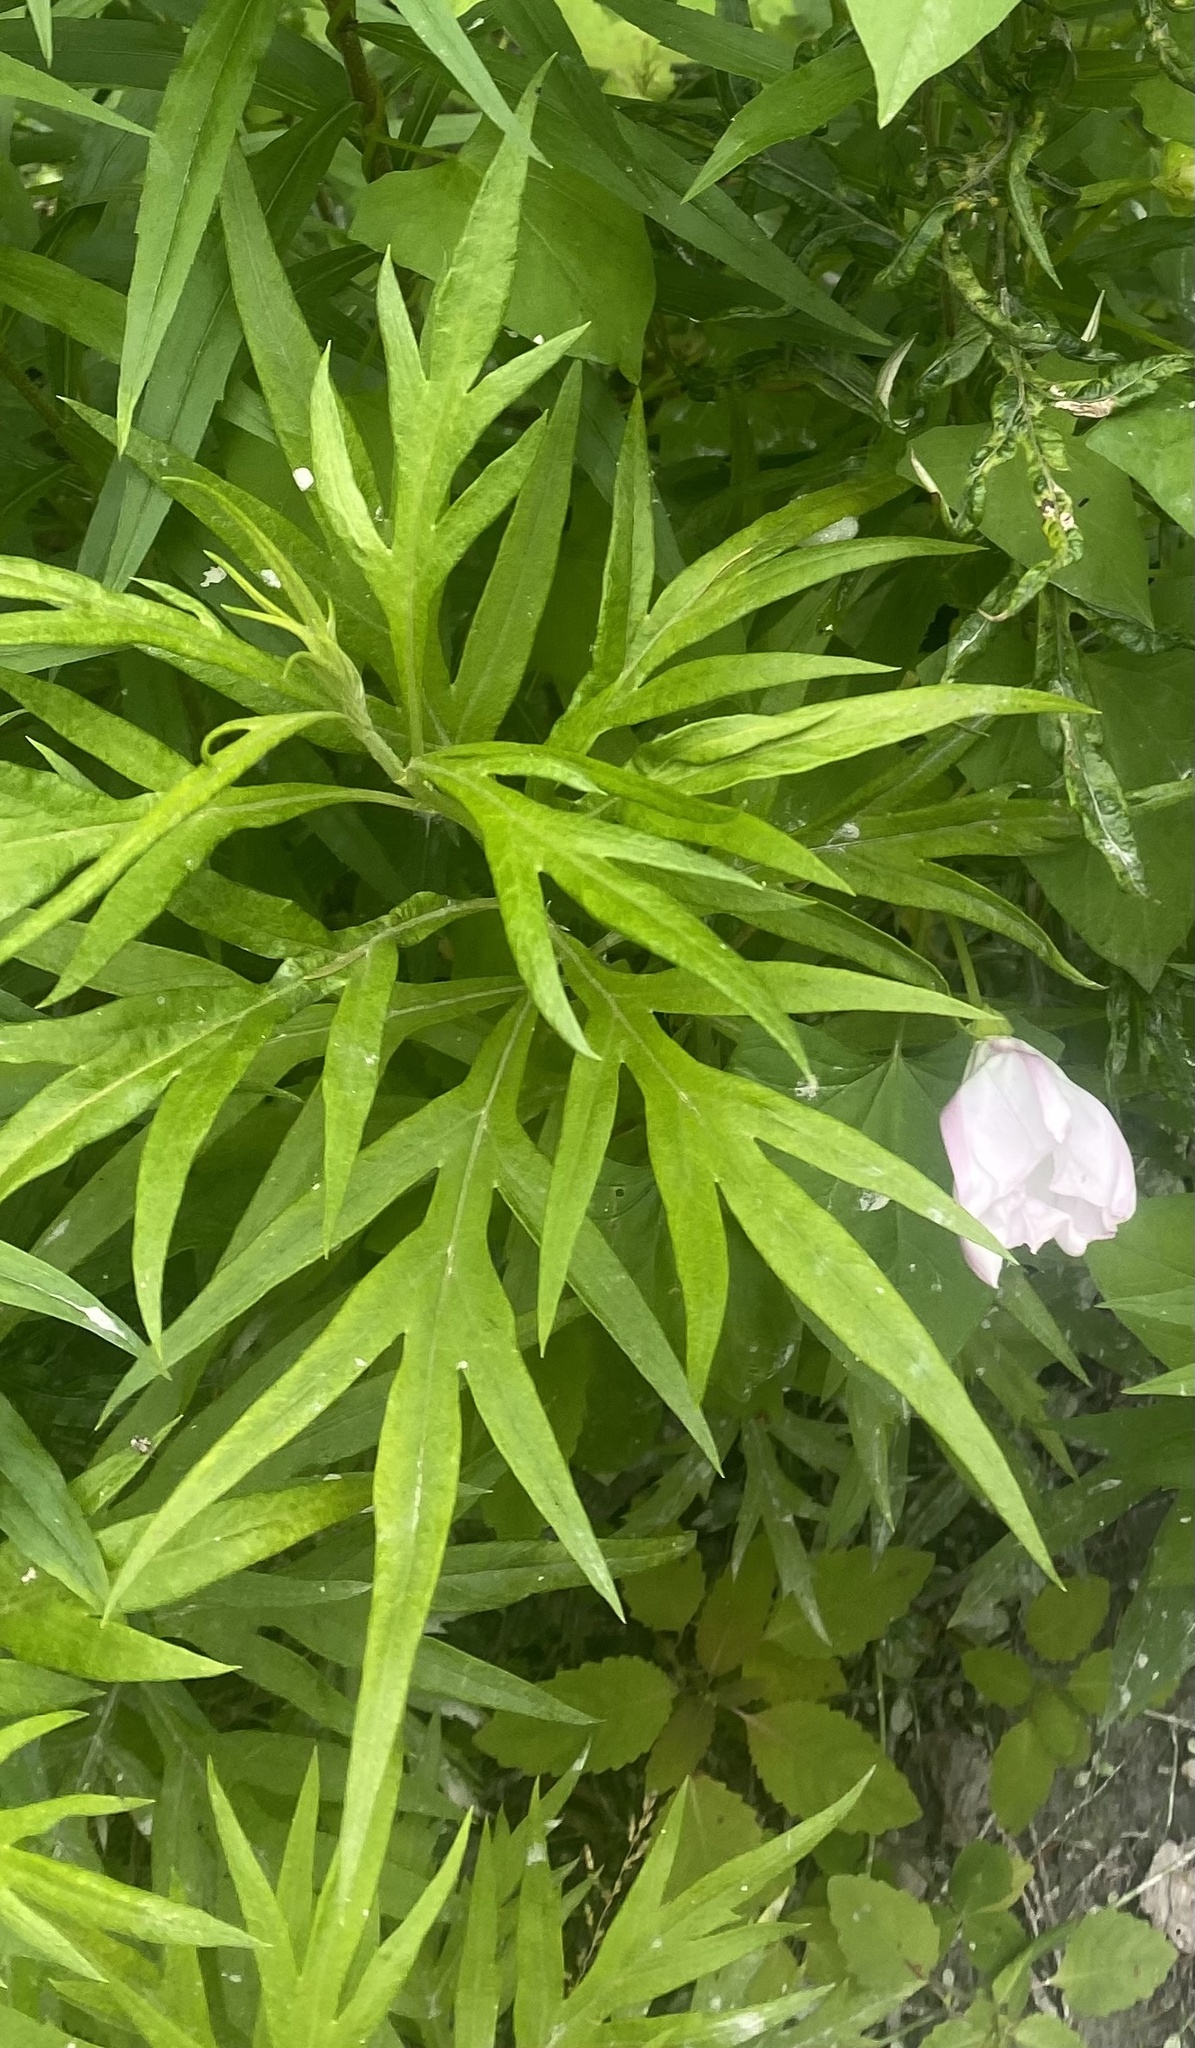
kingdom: Plantae
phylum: Tracheophyta
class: Magnoliopsida
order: Asterales
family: Asteraceae
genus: Jacobaea
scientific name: Jacobaea cannabifolia
